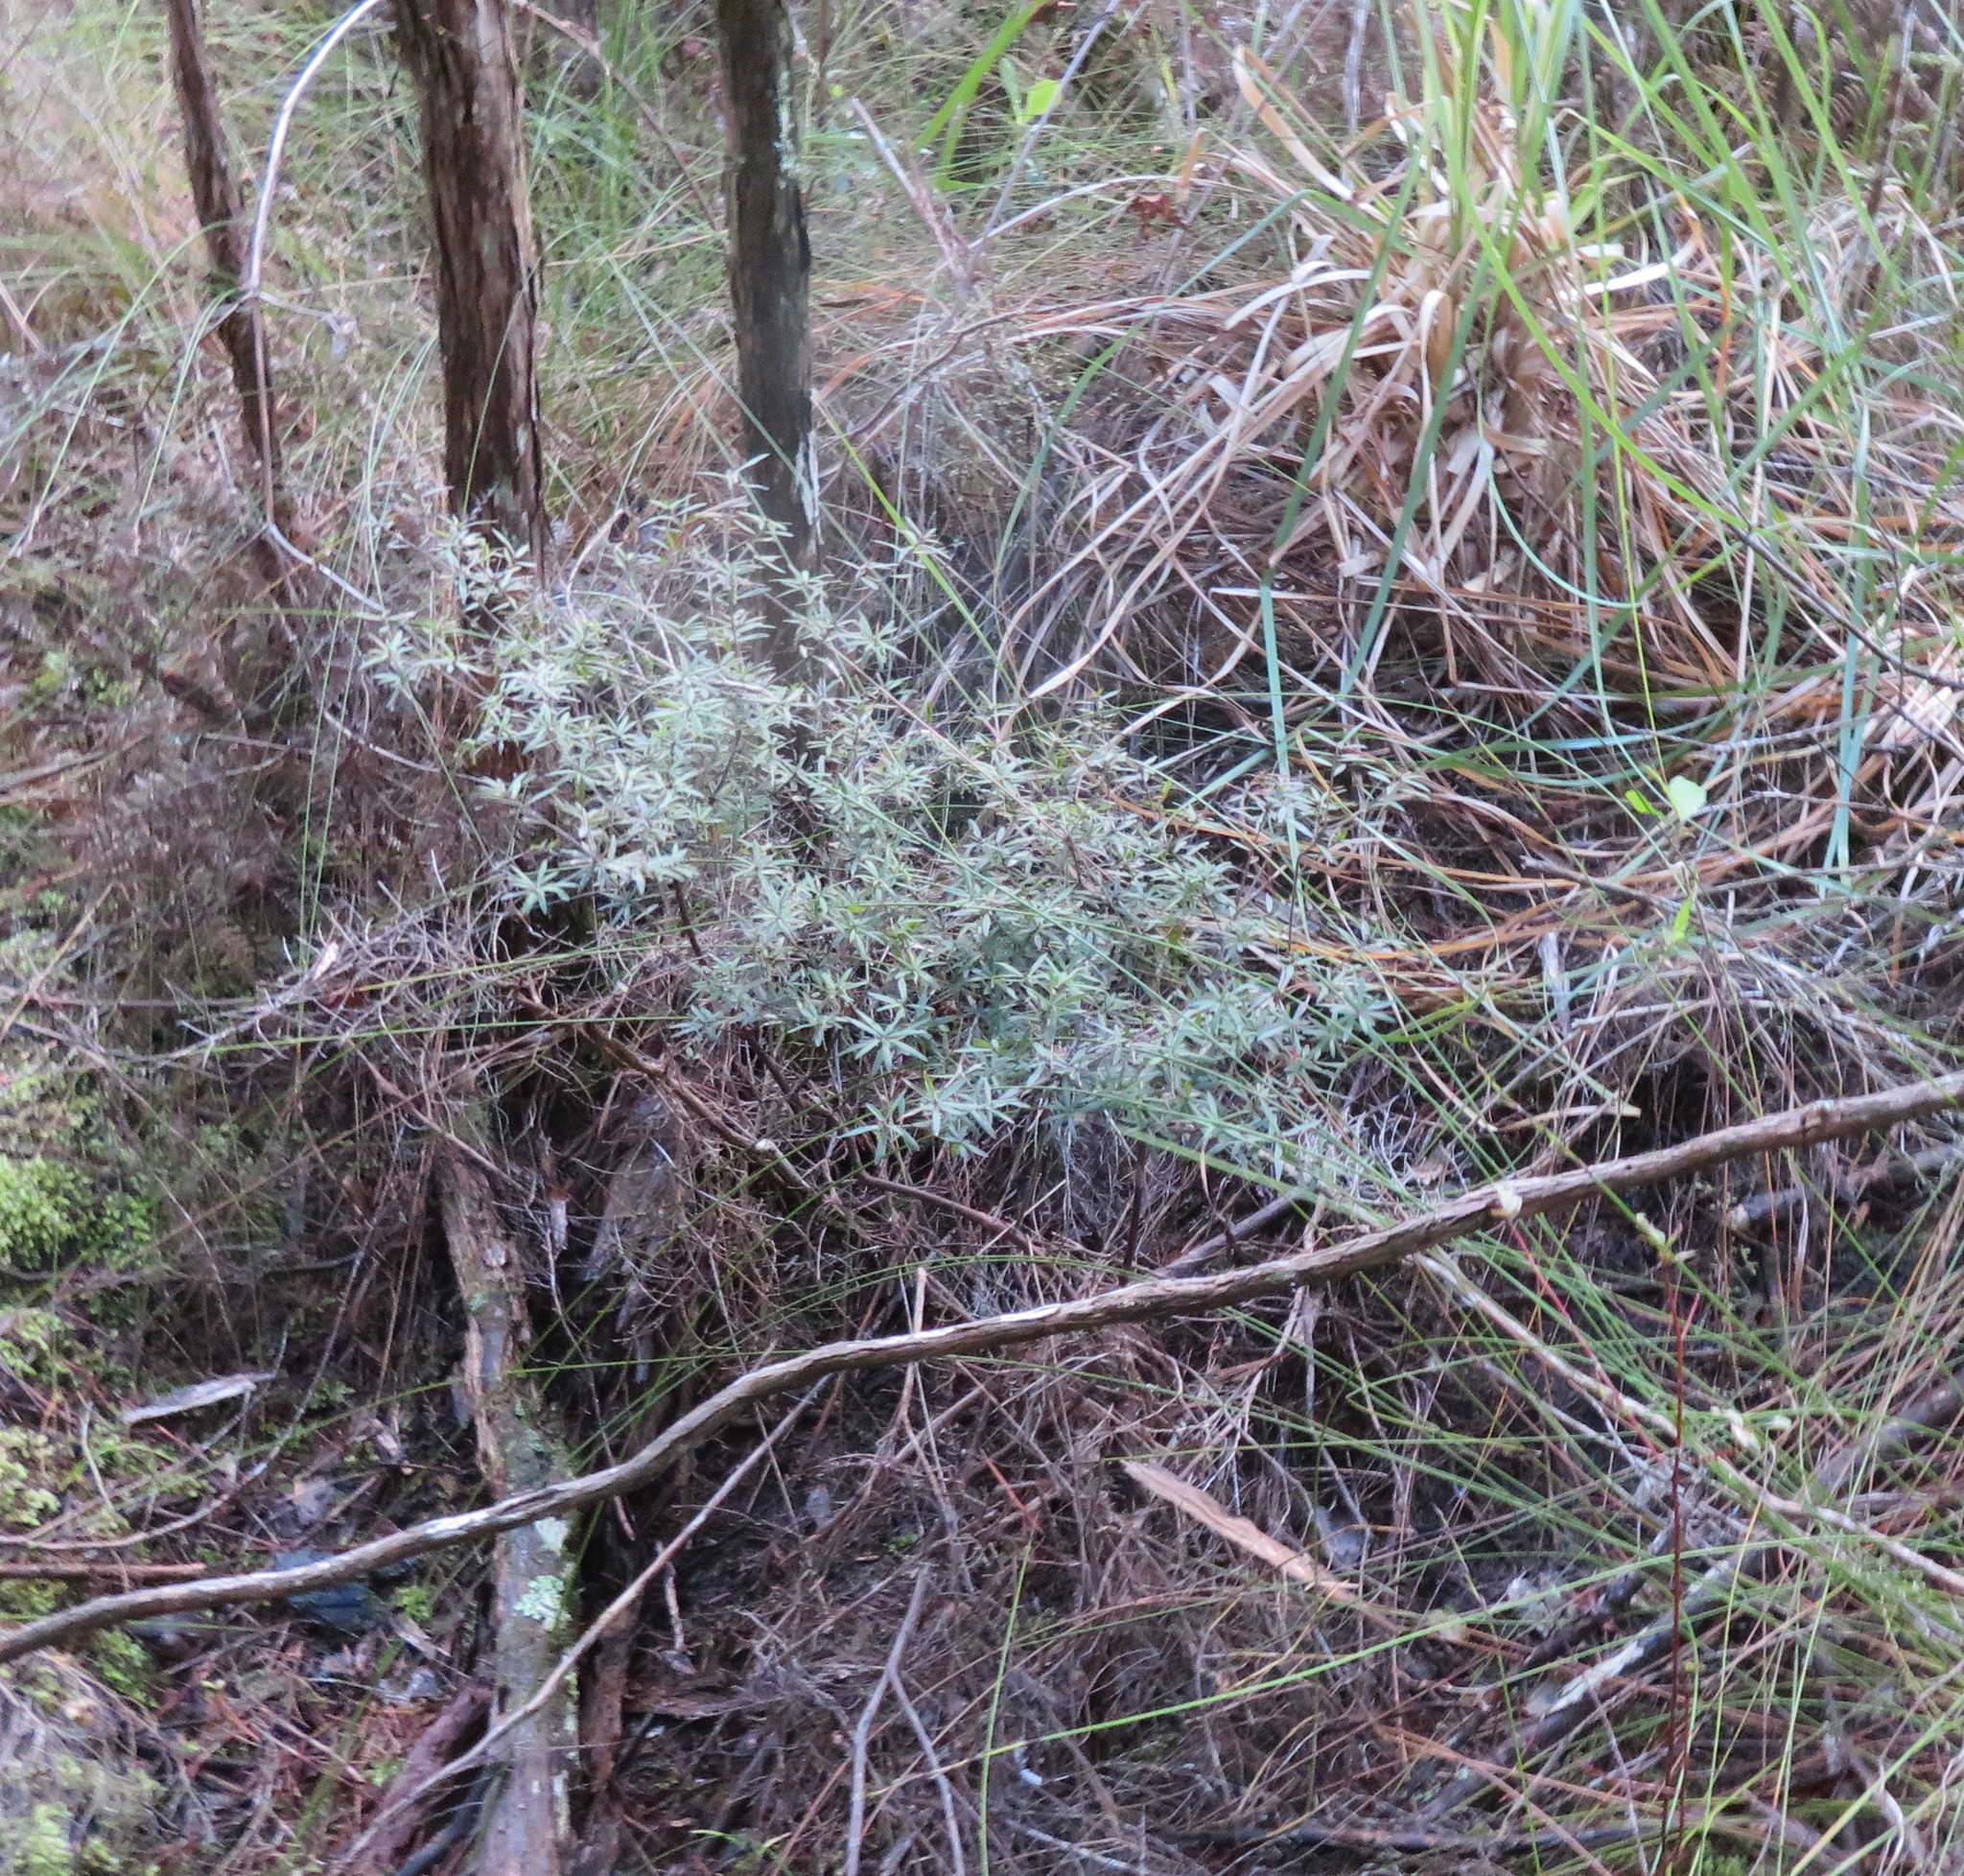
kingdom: Plantae
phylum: Tracheophyta
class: Magnoliopsida
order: Ericales
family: Ericaceae
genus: Leucopogon
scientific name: Leucopogon fasciculatus
